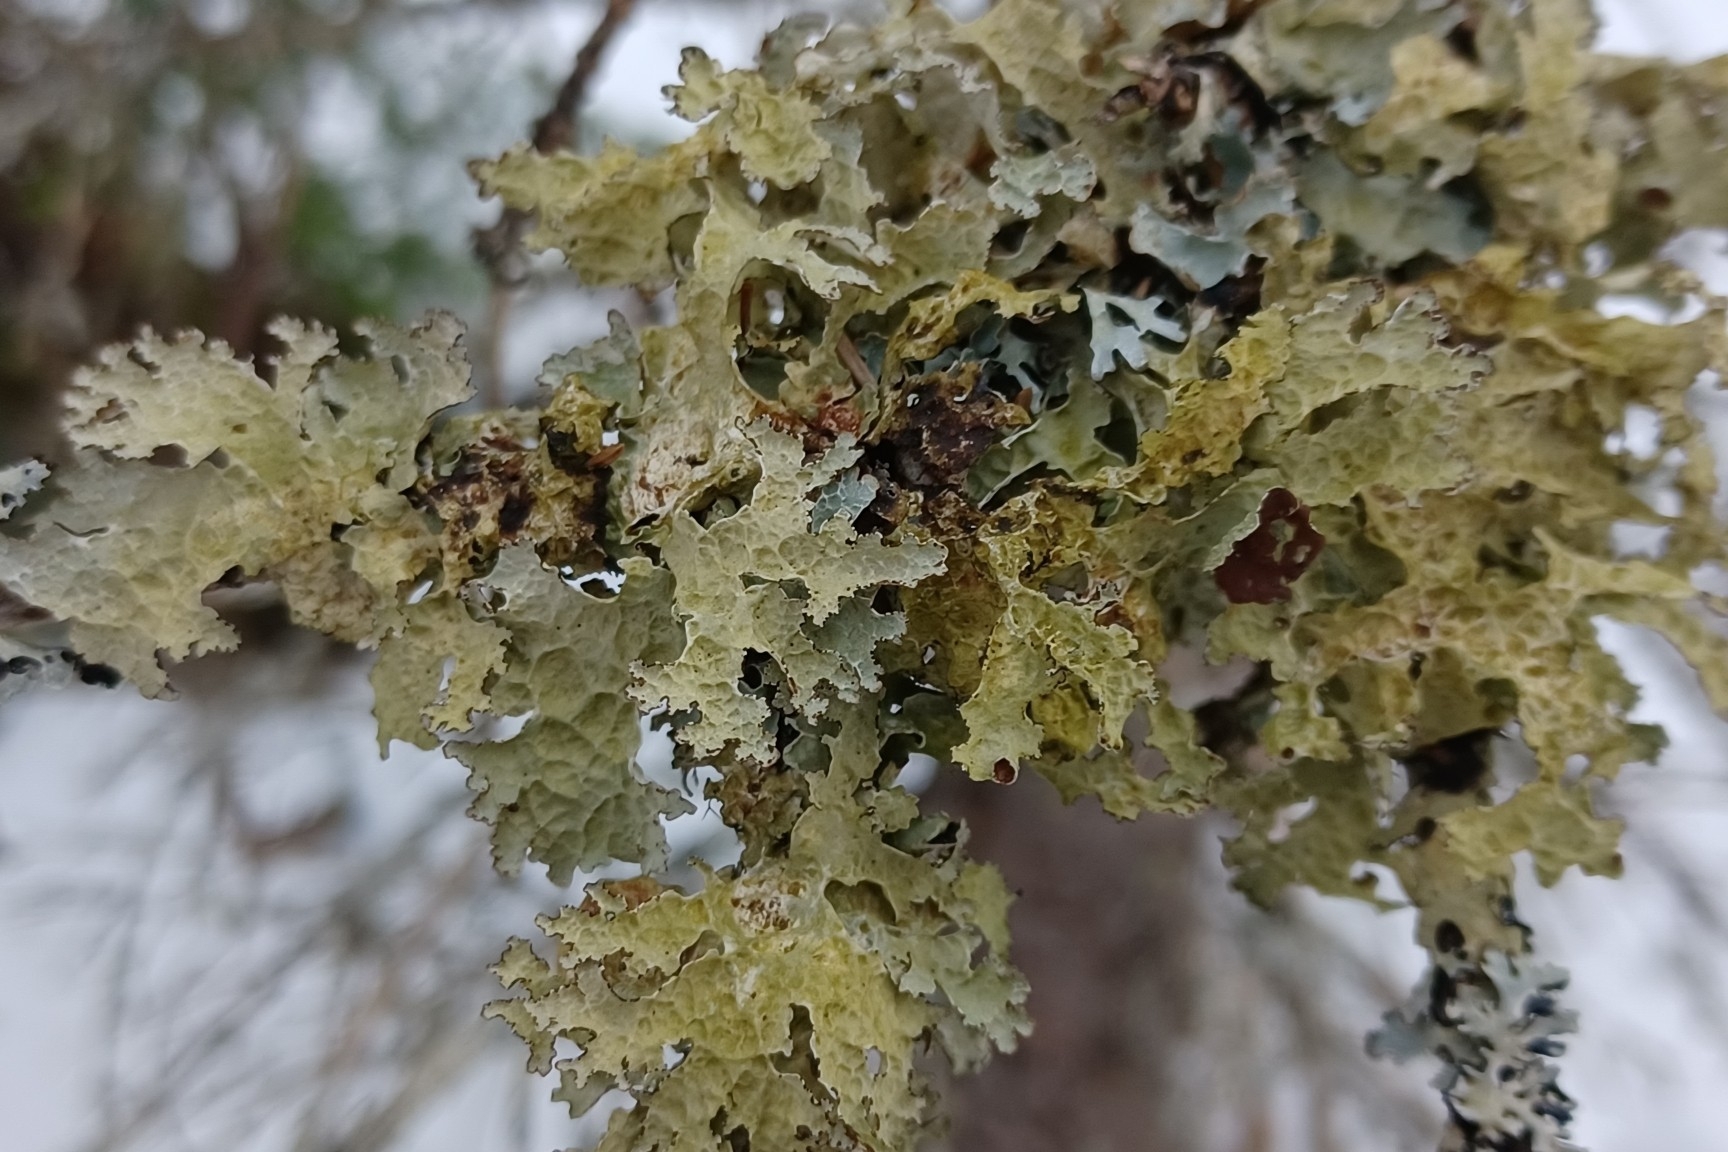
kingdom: Fungi
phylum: Ascomycota
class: Lecanoromycetes
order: Lecanorales
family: Parmeliaceae
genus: Platismatia
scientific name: Platismatia tuckermanii
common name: Crumpled rag lichen
